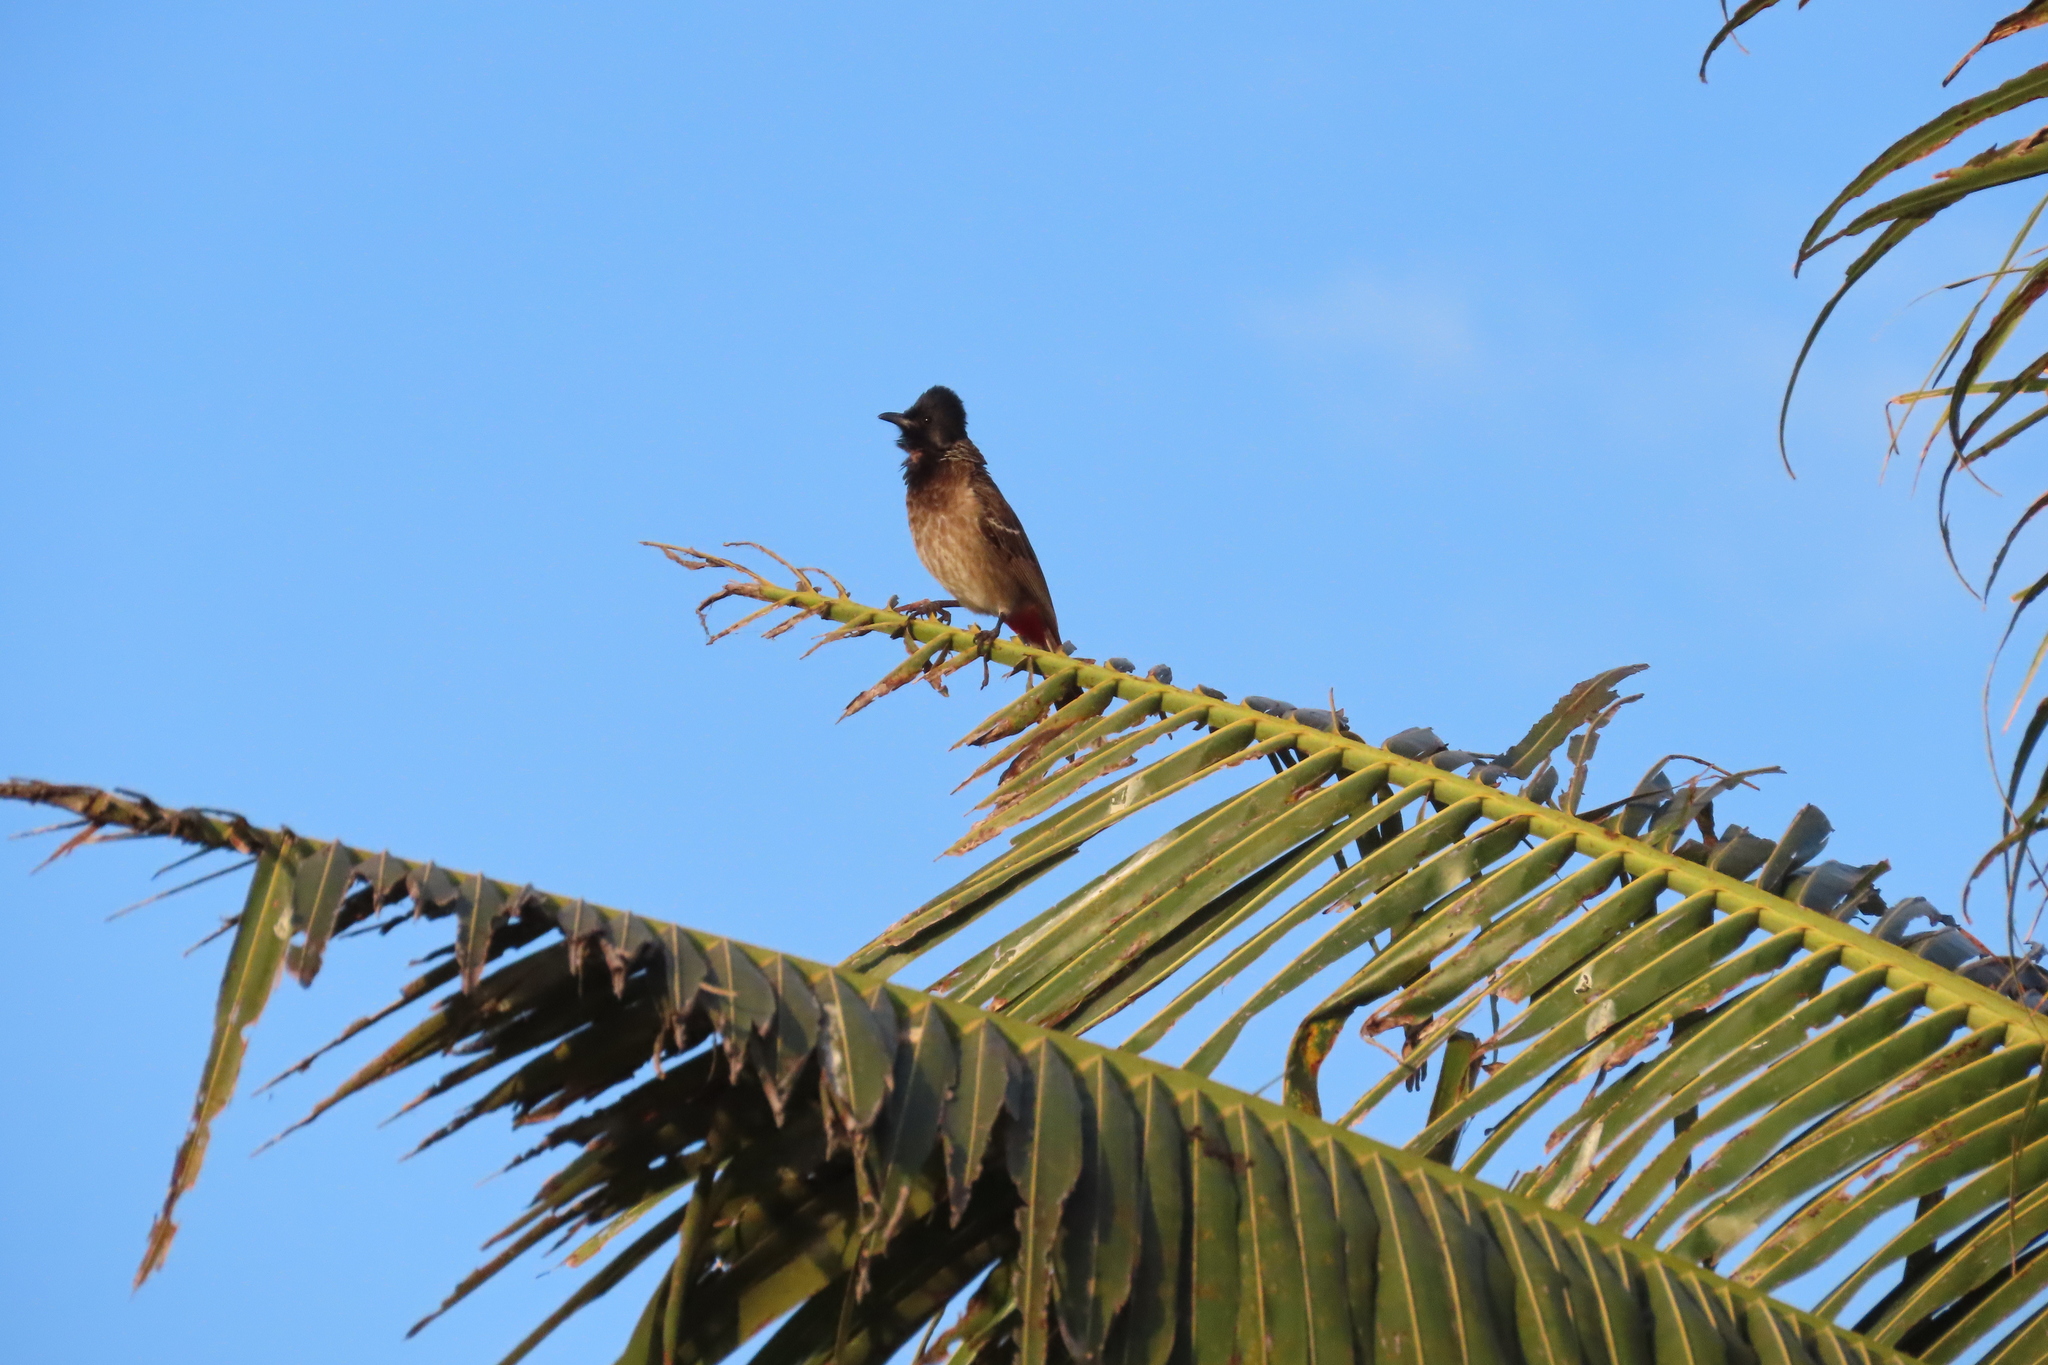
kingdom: Animalia
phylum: Chordata
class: Aves
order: Passeriformes
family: Pycnonotidae
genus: Pycnonotus
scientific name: Pycnonotus cafer
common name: Red-vented bulbul
